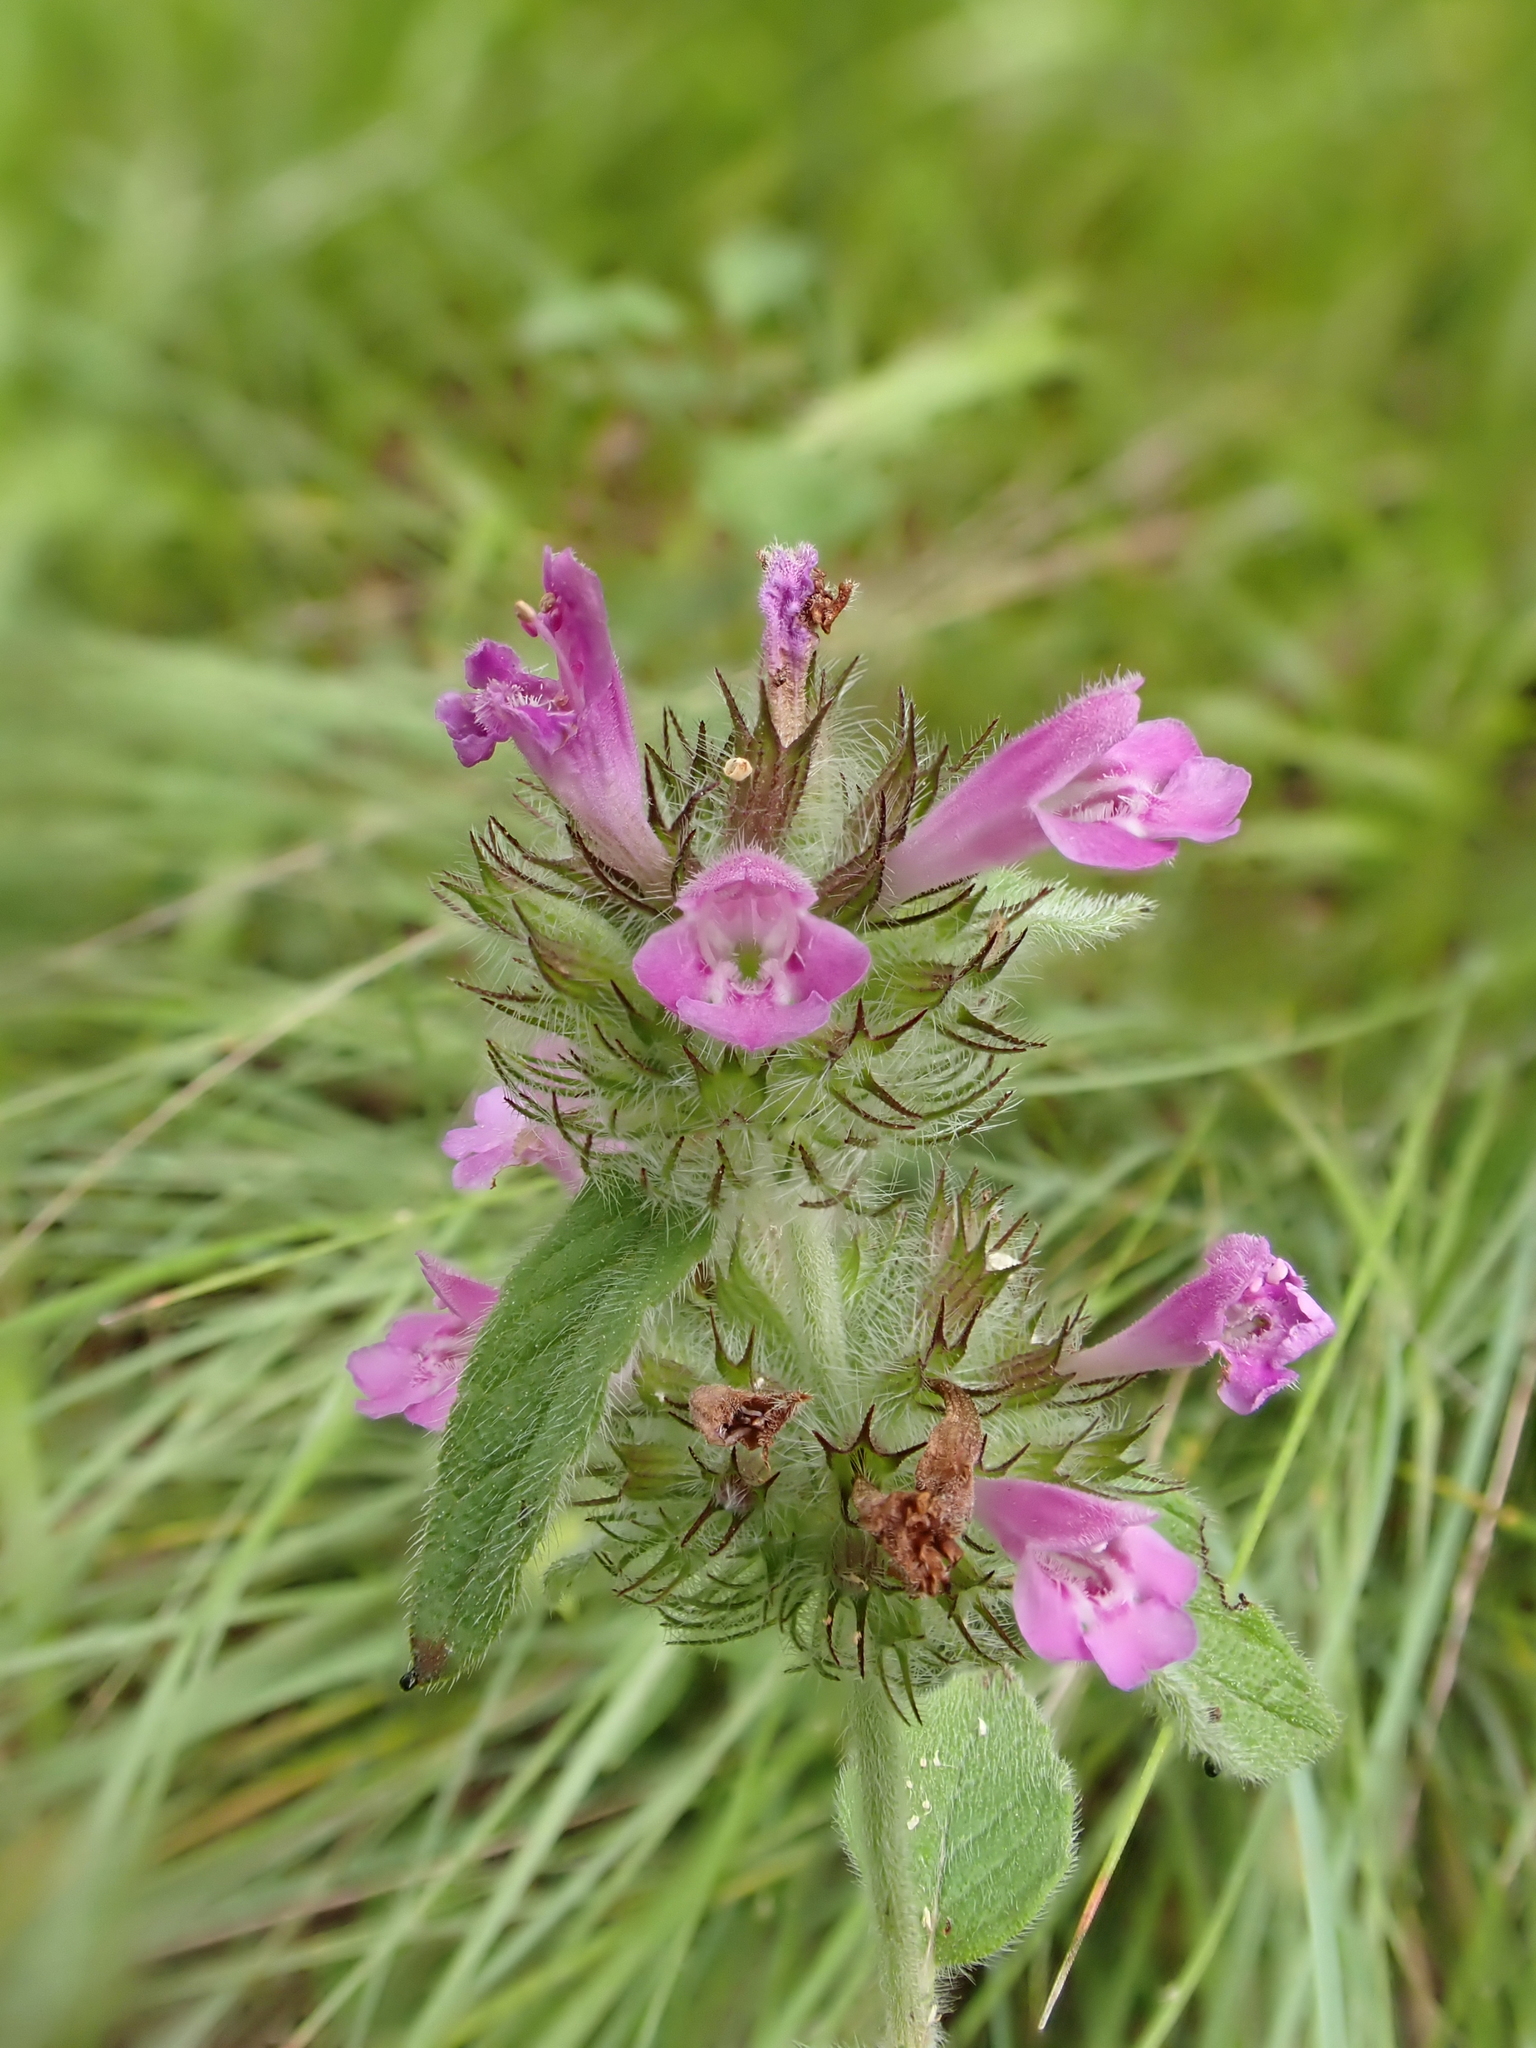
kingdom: Plantae
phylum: Tracheophyta
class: Magnoliopsida
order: Lamiales
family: Lamiaceae
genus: Clinopodium
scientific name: Clinopodium vulgare
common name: Wild basil
